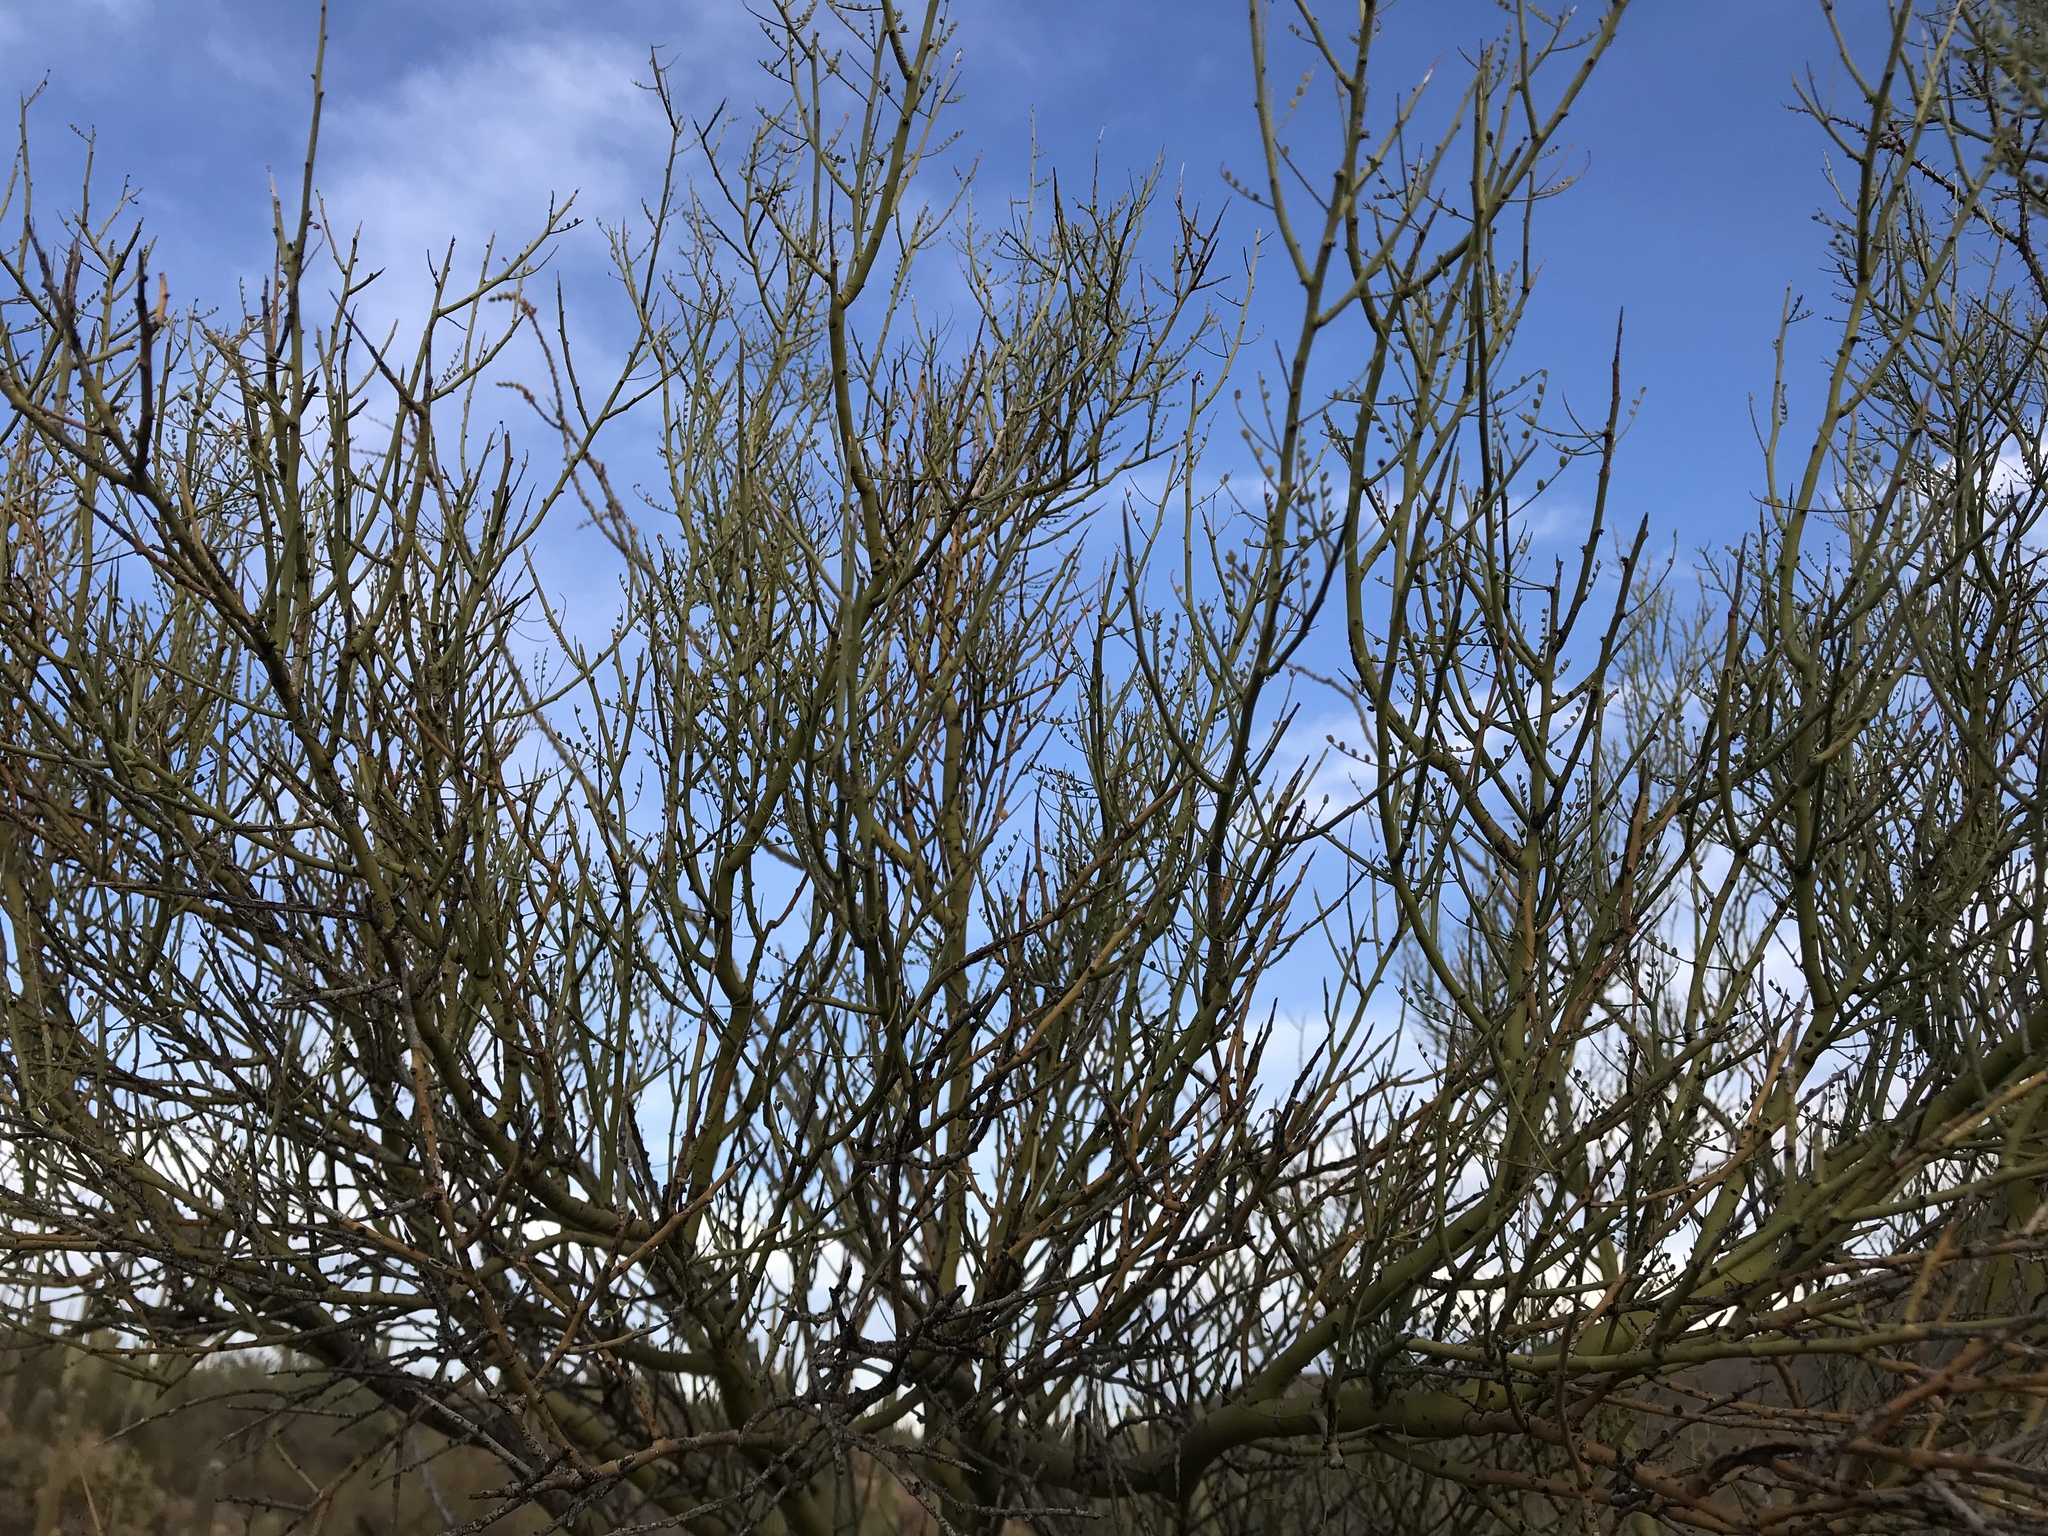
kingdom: Plantae
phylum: Tracheophyta
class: Magnoliopsida
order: Fabales
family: Fabaceae
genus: Parkinsonia
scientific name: Parkinsonia microphylla
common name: Yellow paloverde
